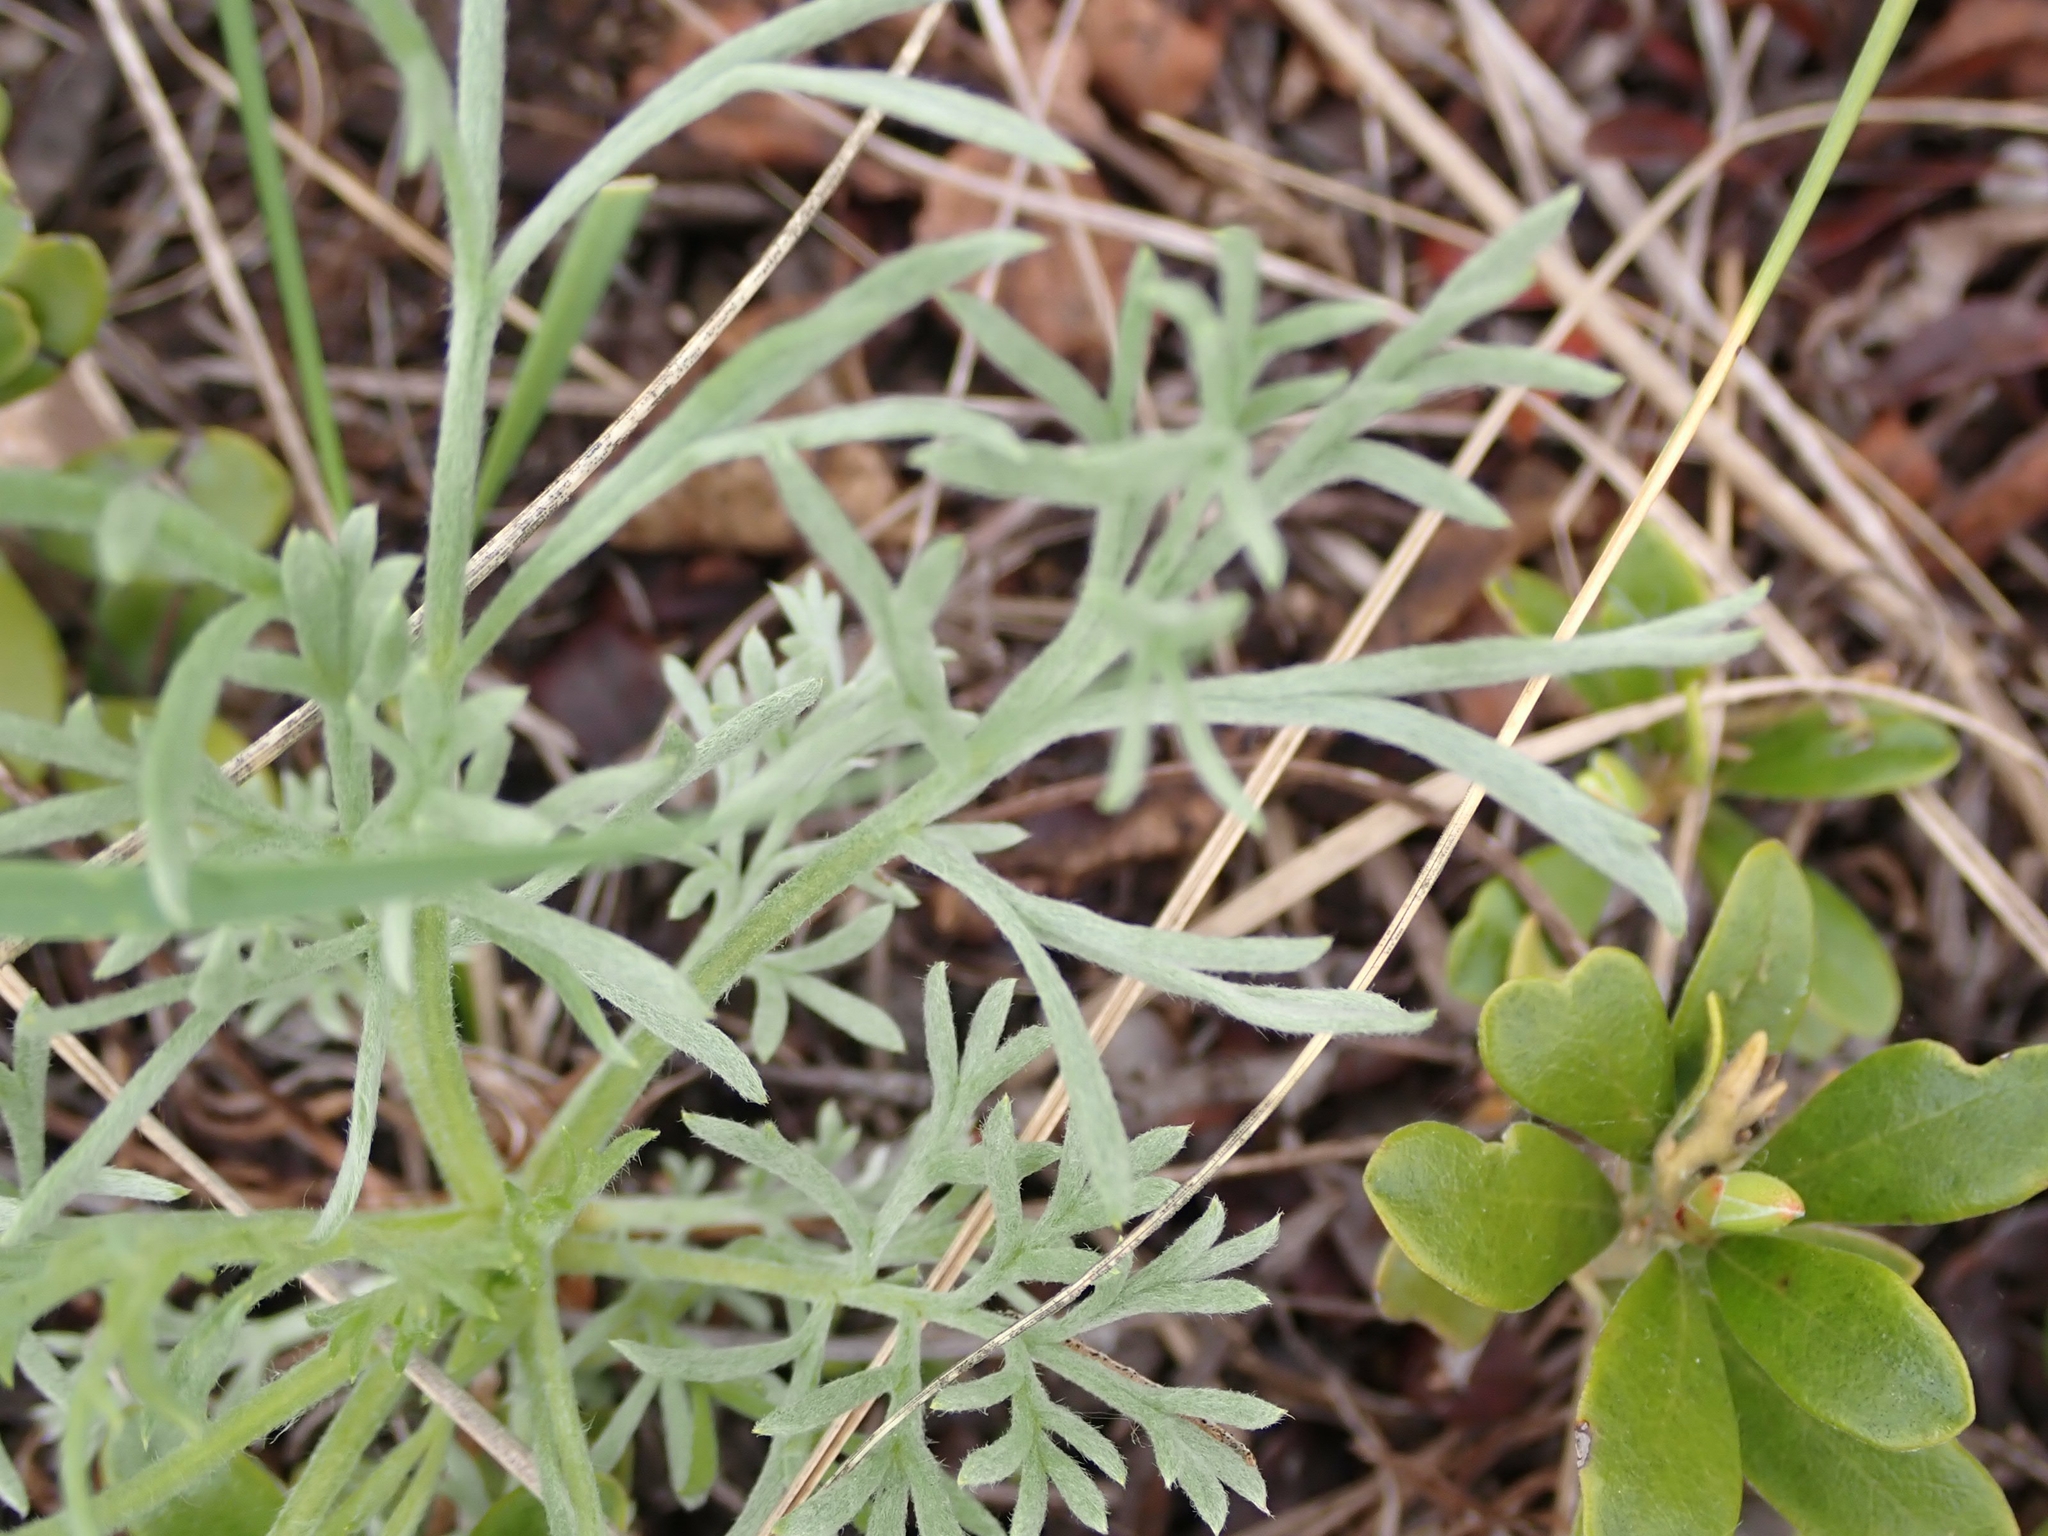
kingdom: Plantae
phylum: Tracheophyta
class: Magnoliopsida
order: Asterales
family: Asteraceae
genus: Artemisia
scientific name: Artemisia campestris
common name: Field wormwood
